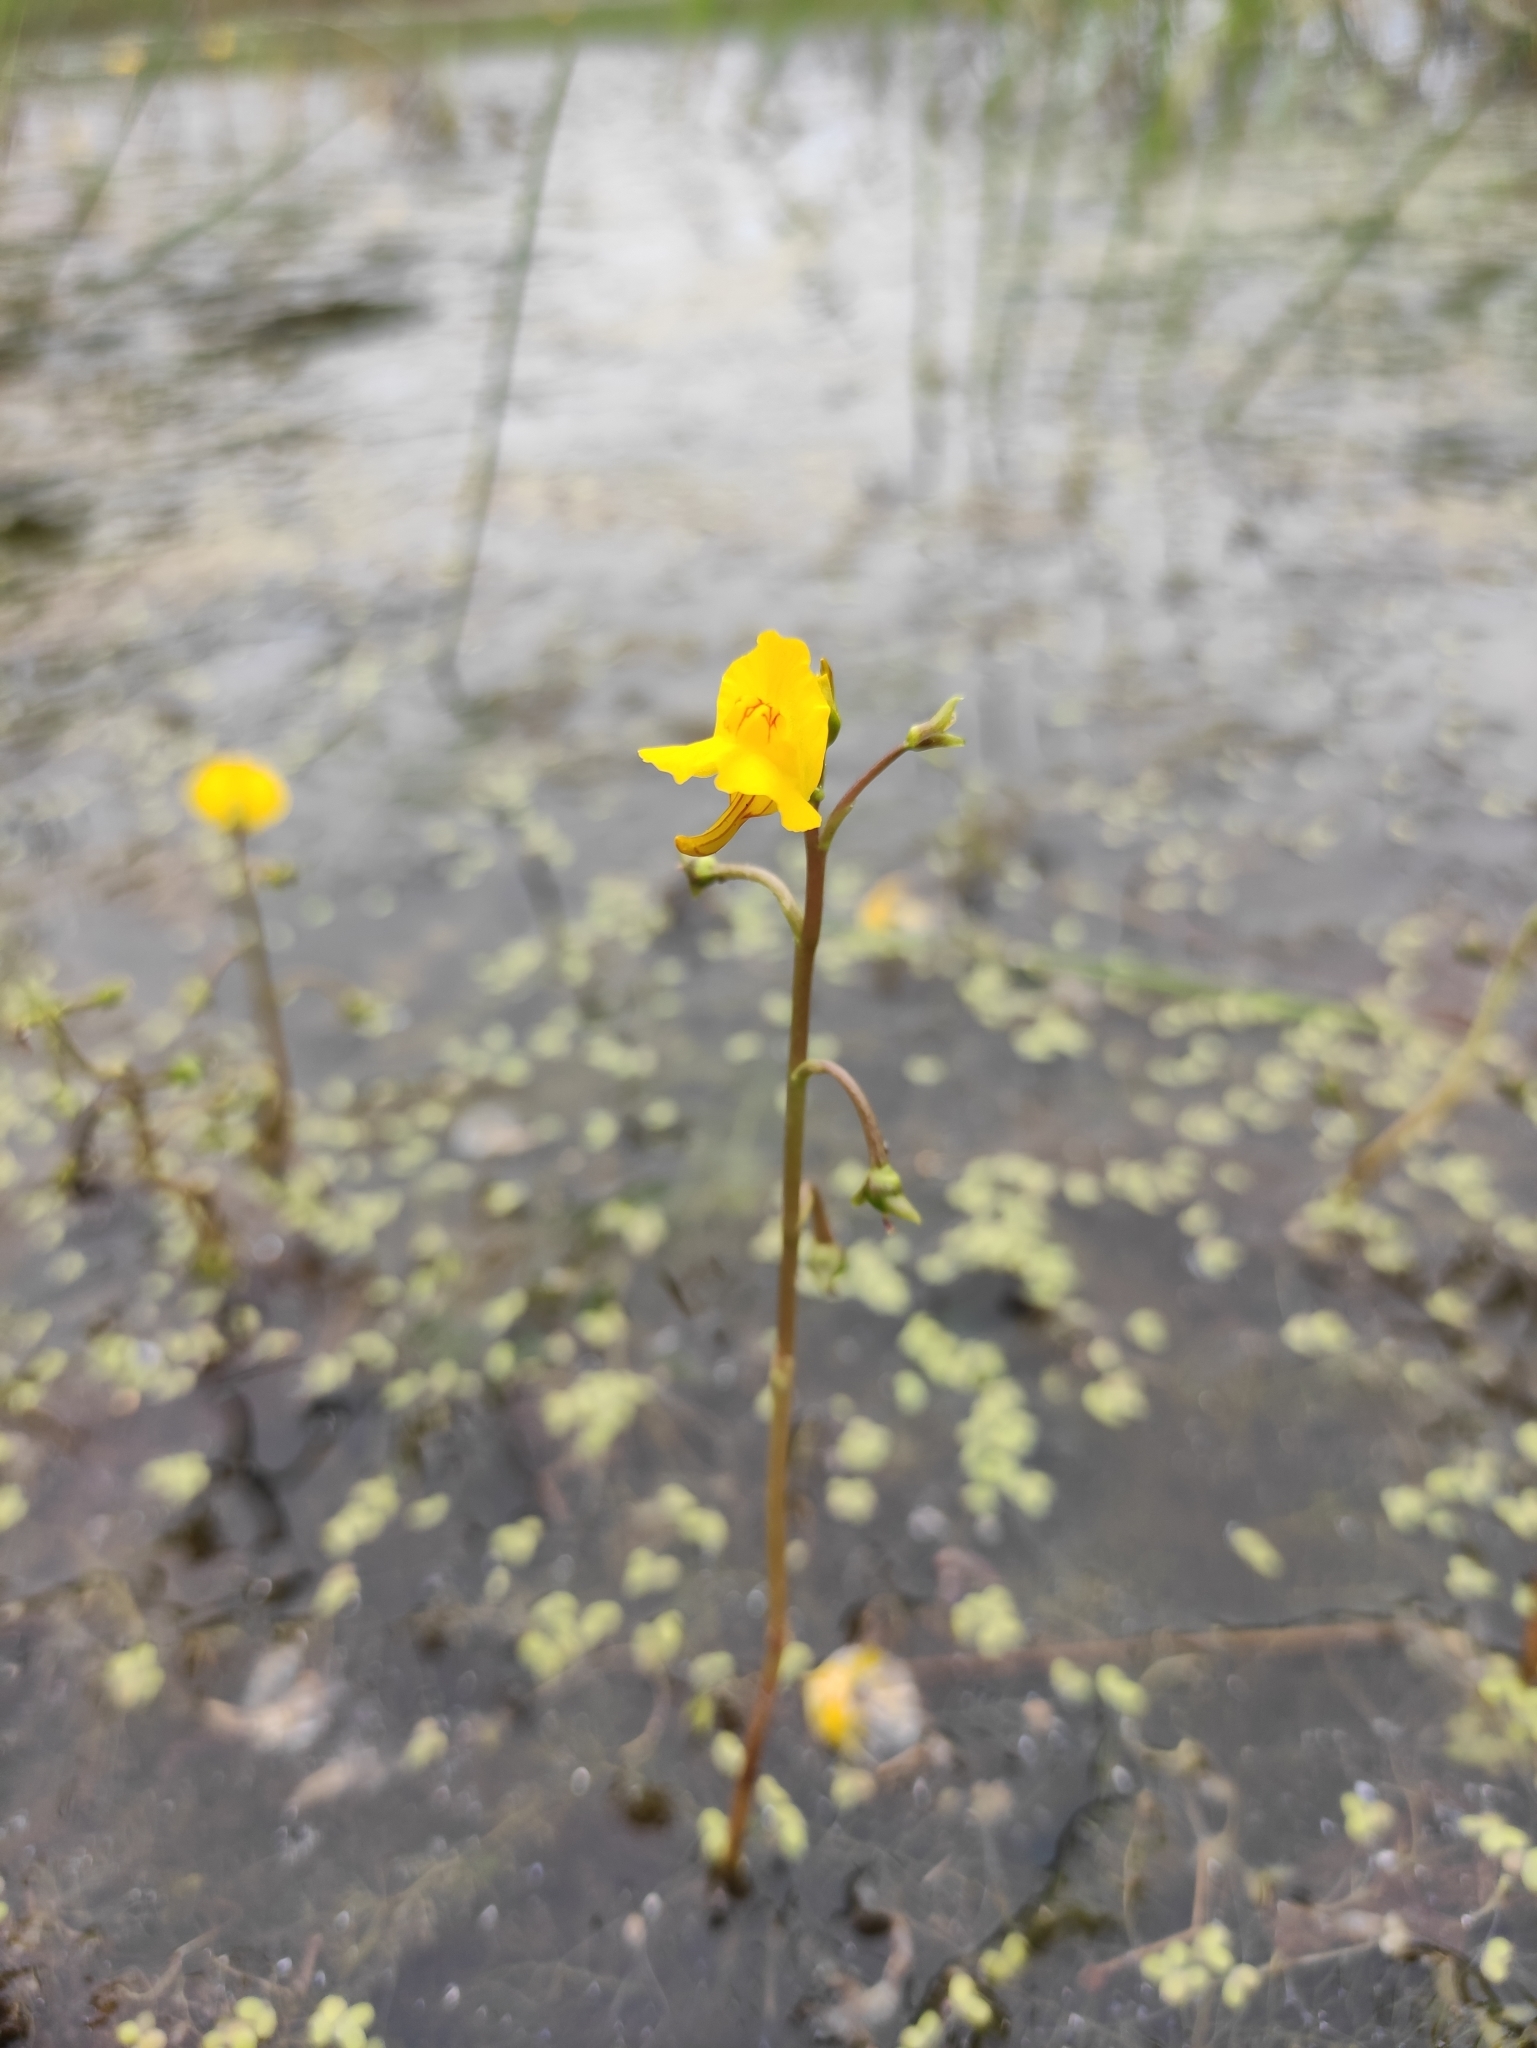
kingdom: Plantae
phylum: Tracheophyta
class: Magnoliopsida
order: Lamiales
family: Lentibulariaceae
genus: Utricularia
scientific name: Utricularia macrorhiza
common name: Common bladderwort
